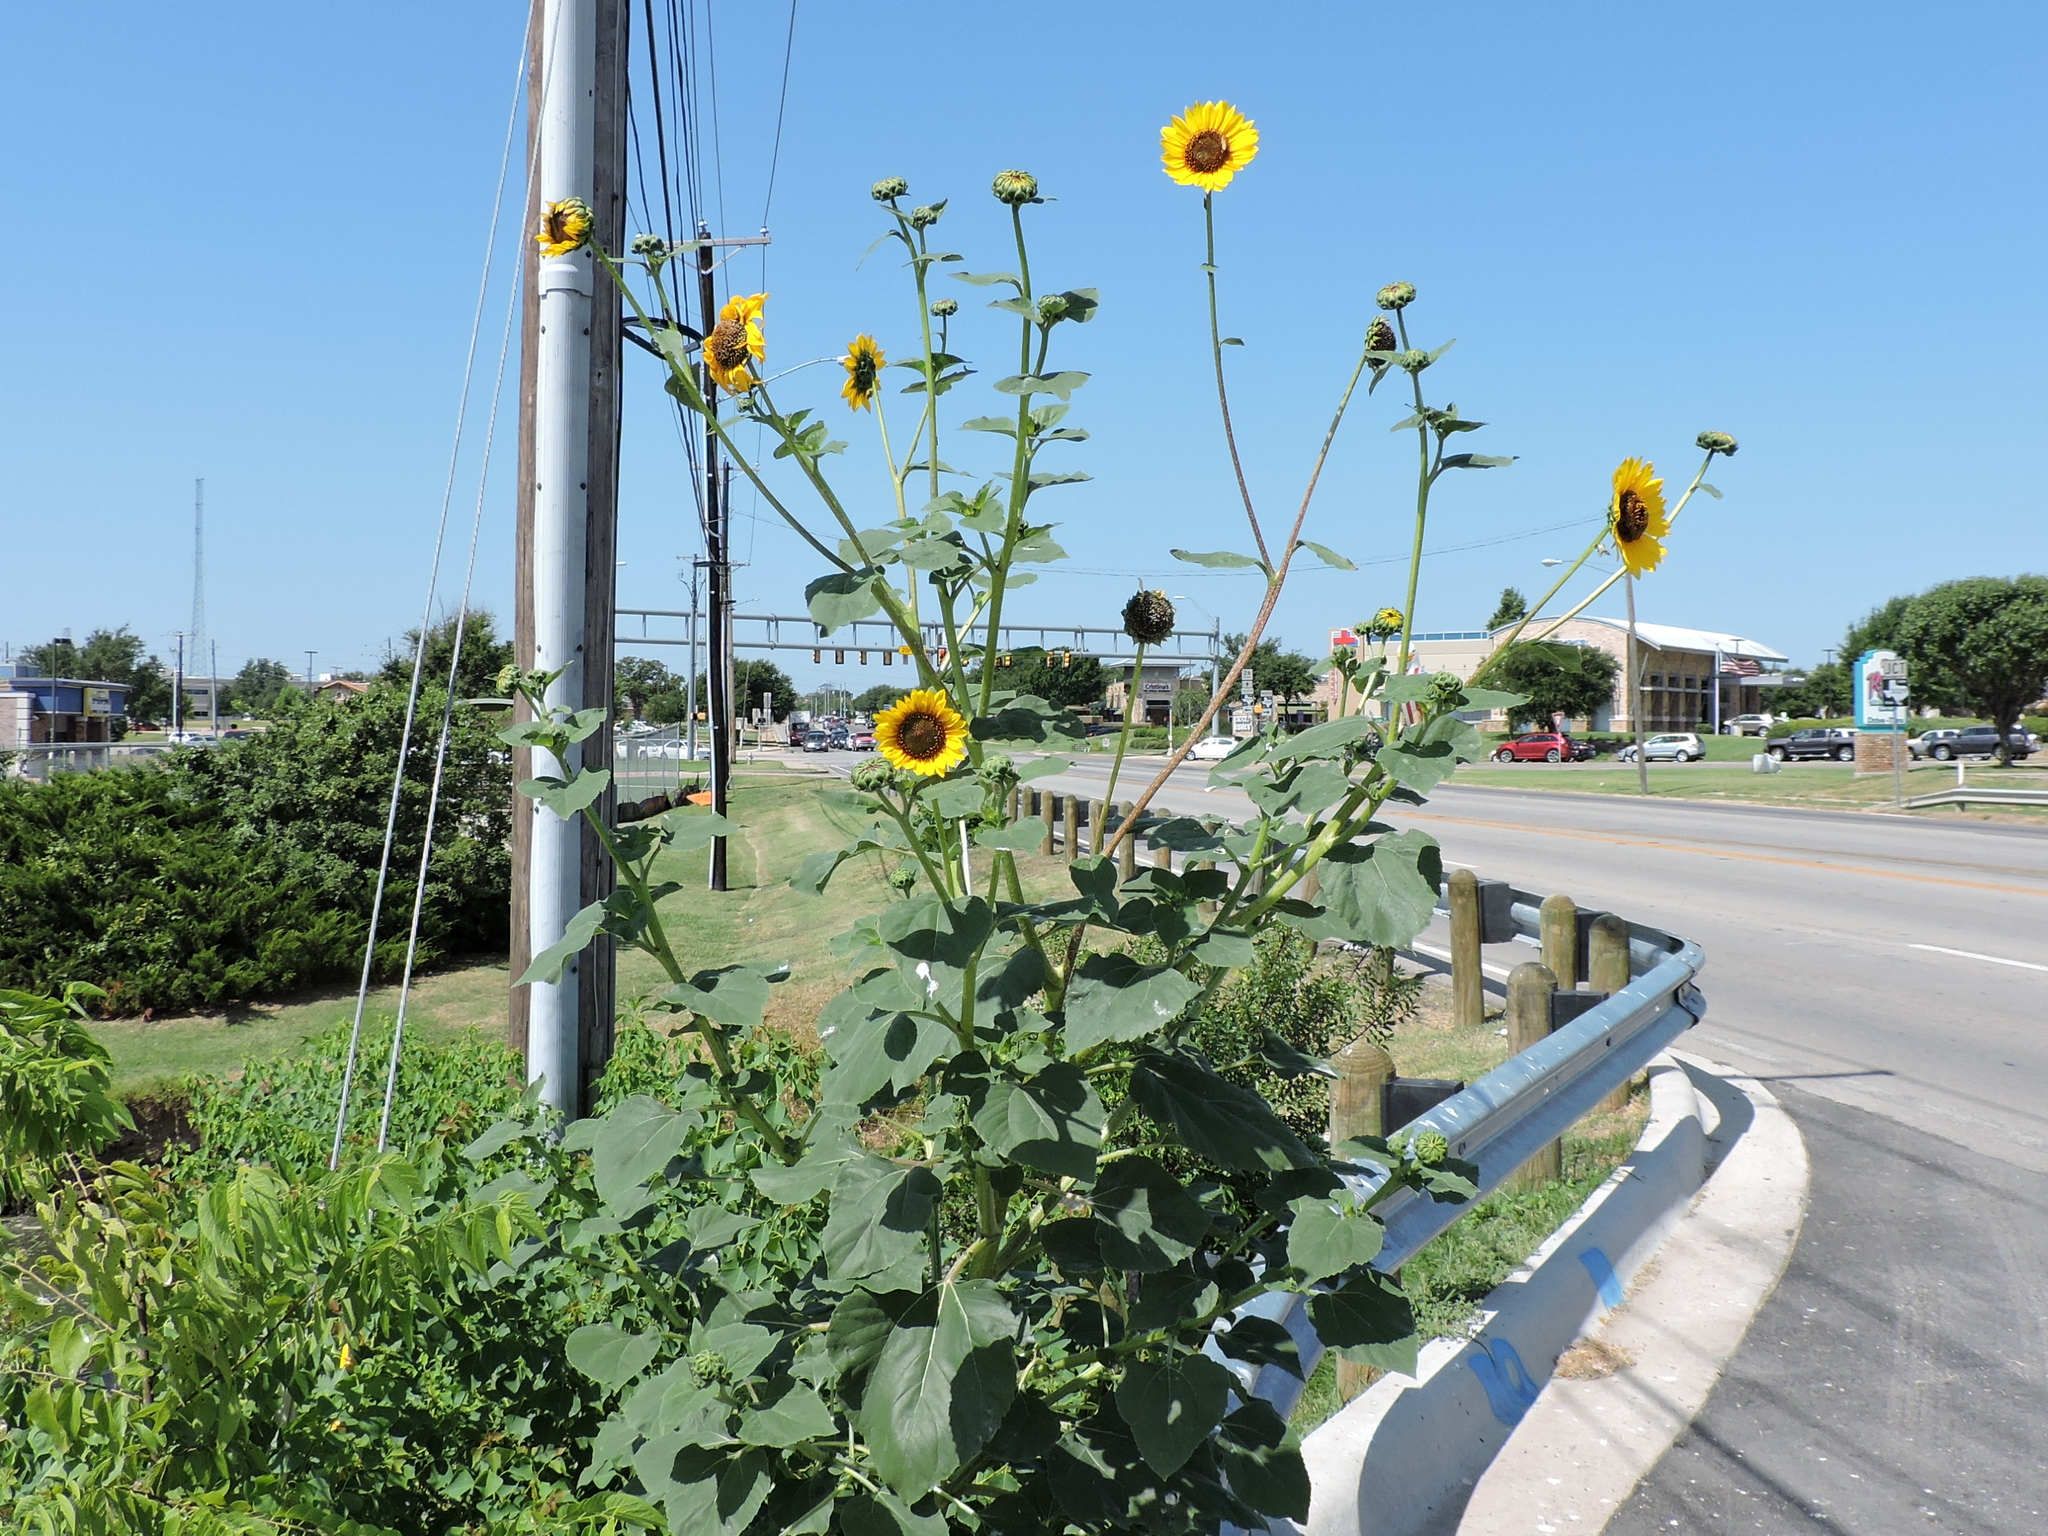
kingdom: Plantae
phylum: Tracheophyta
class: Magnoliopsida
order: Asterales
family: Asteraceae
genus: Helianthus
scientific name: Helianthus annuus
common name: Sunflower
